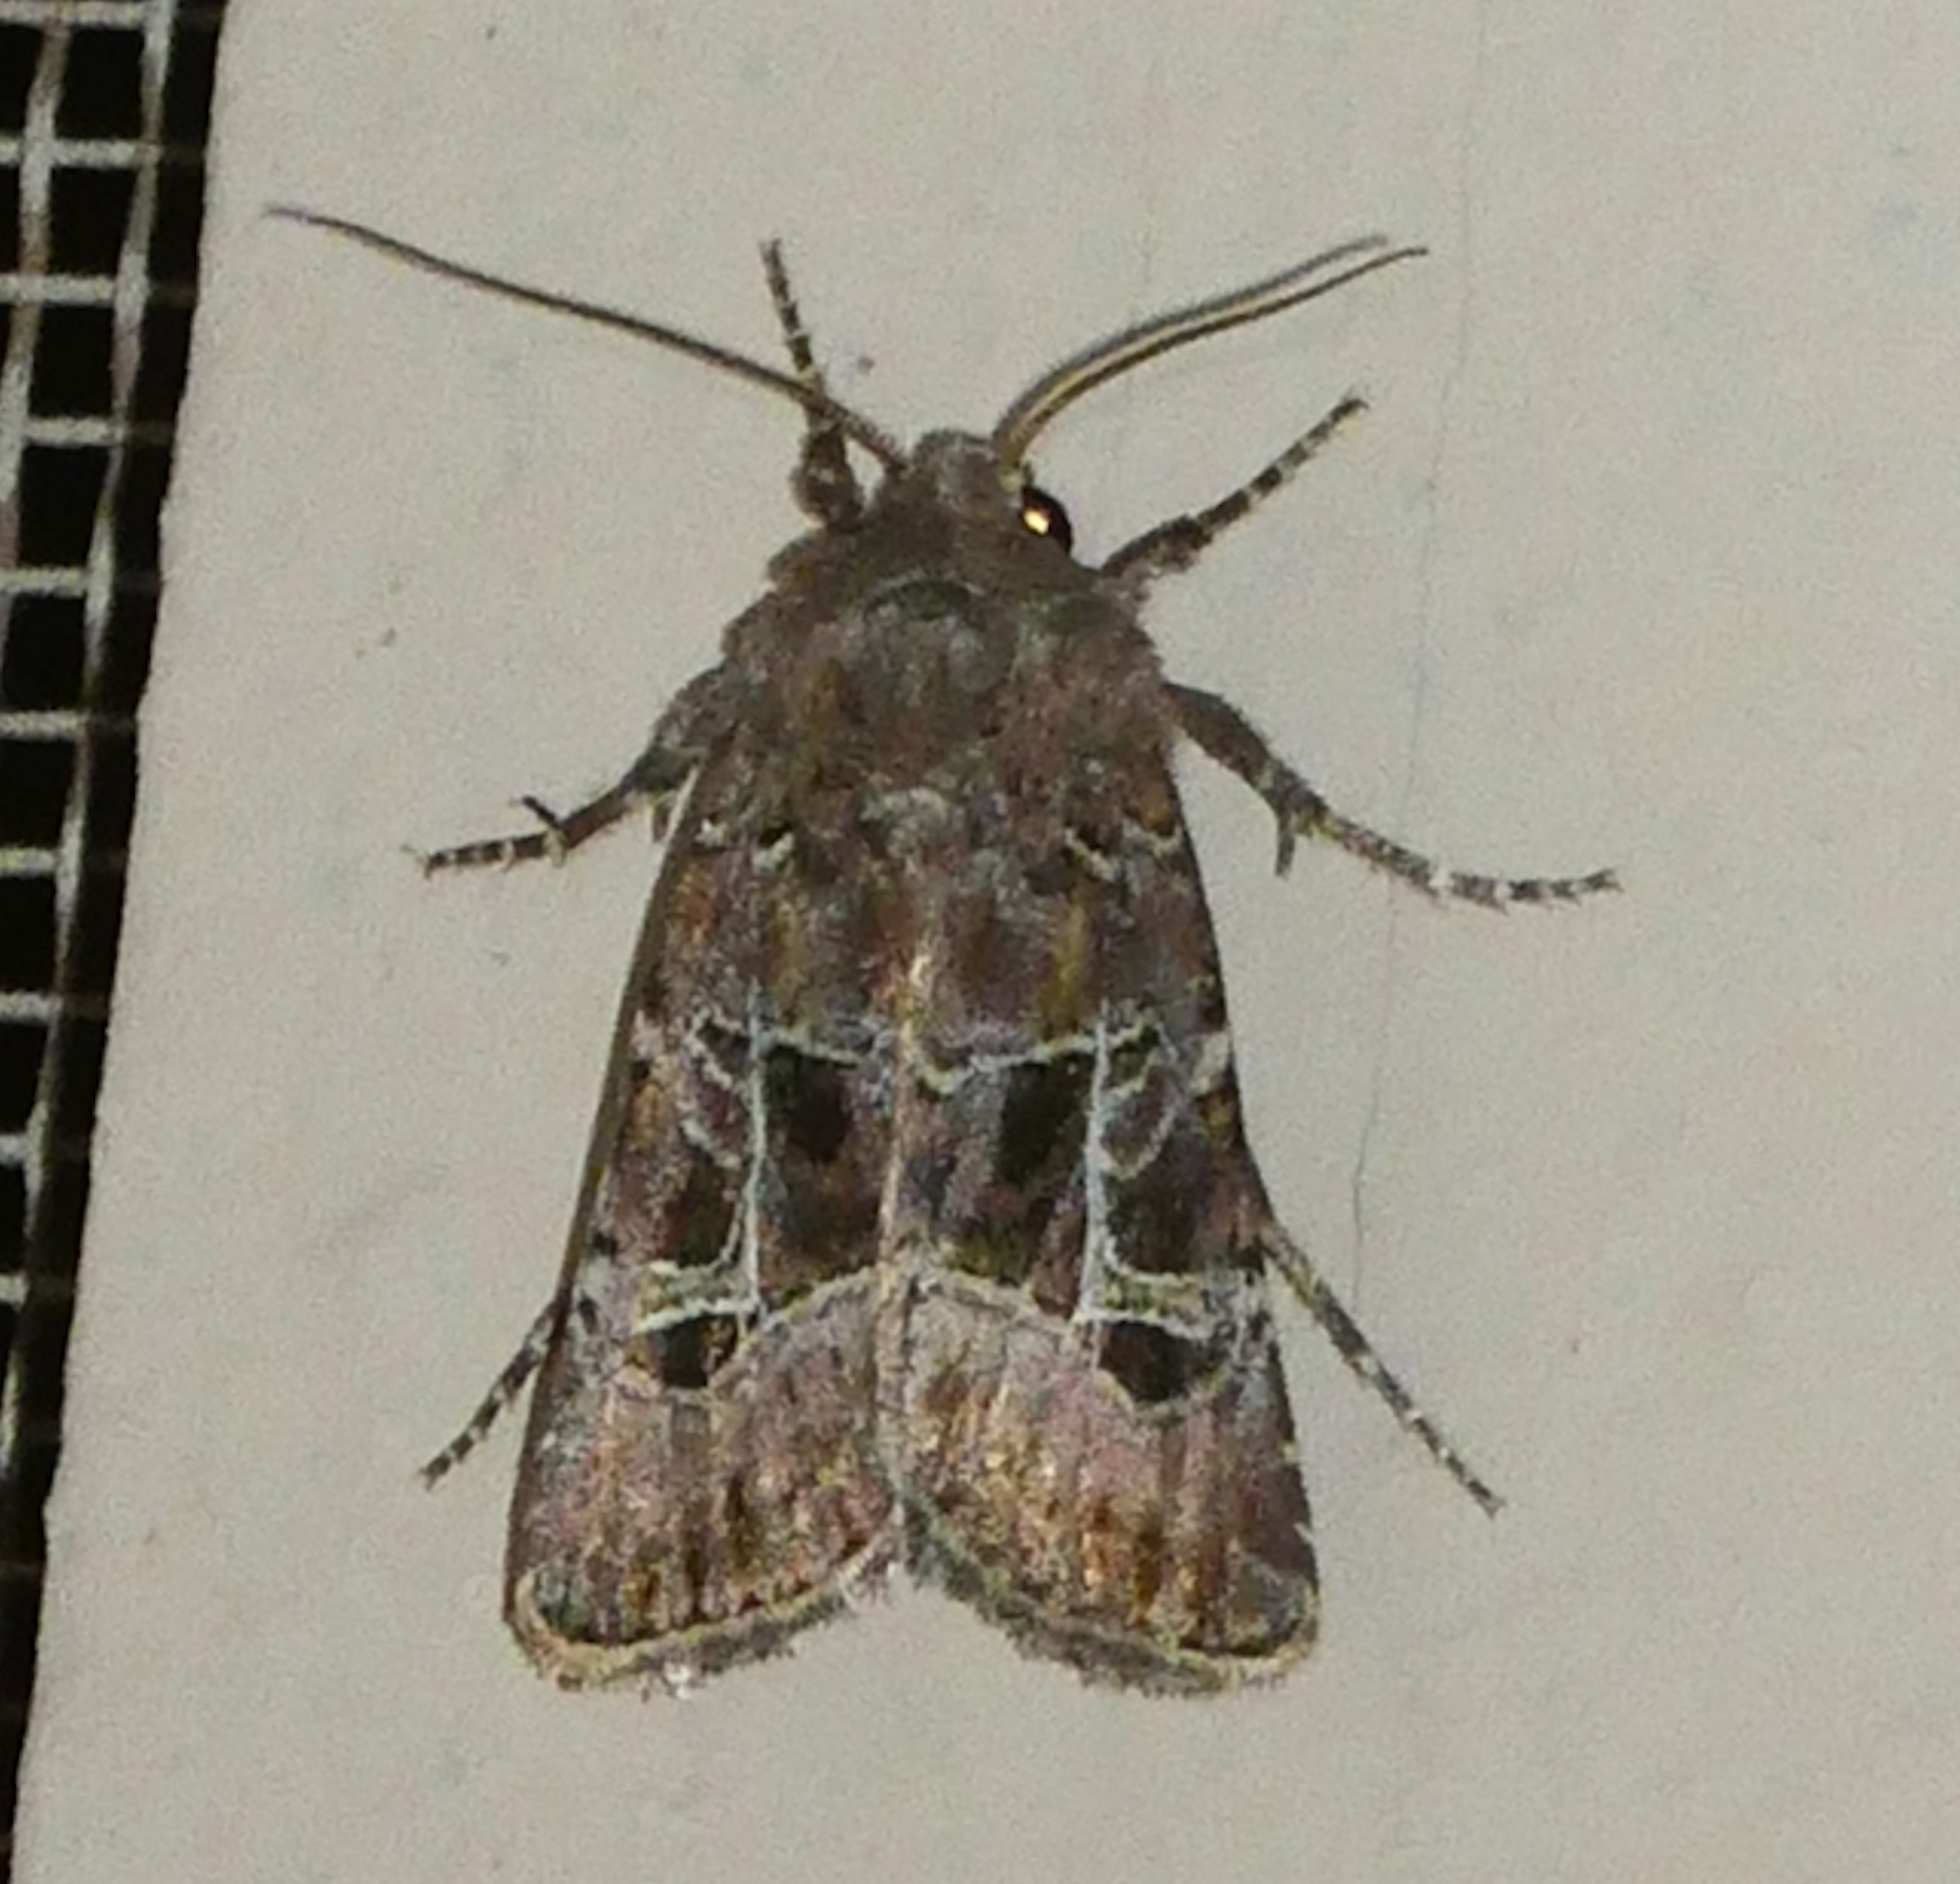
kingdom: Animalia
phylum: Arthropoda
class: Insecta
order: Lepidoptera
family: Noctuidae
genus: Lacinipolia
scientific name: Lacinipolia spiculosa
